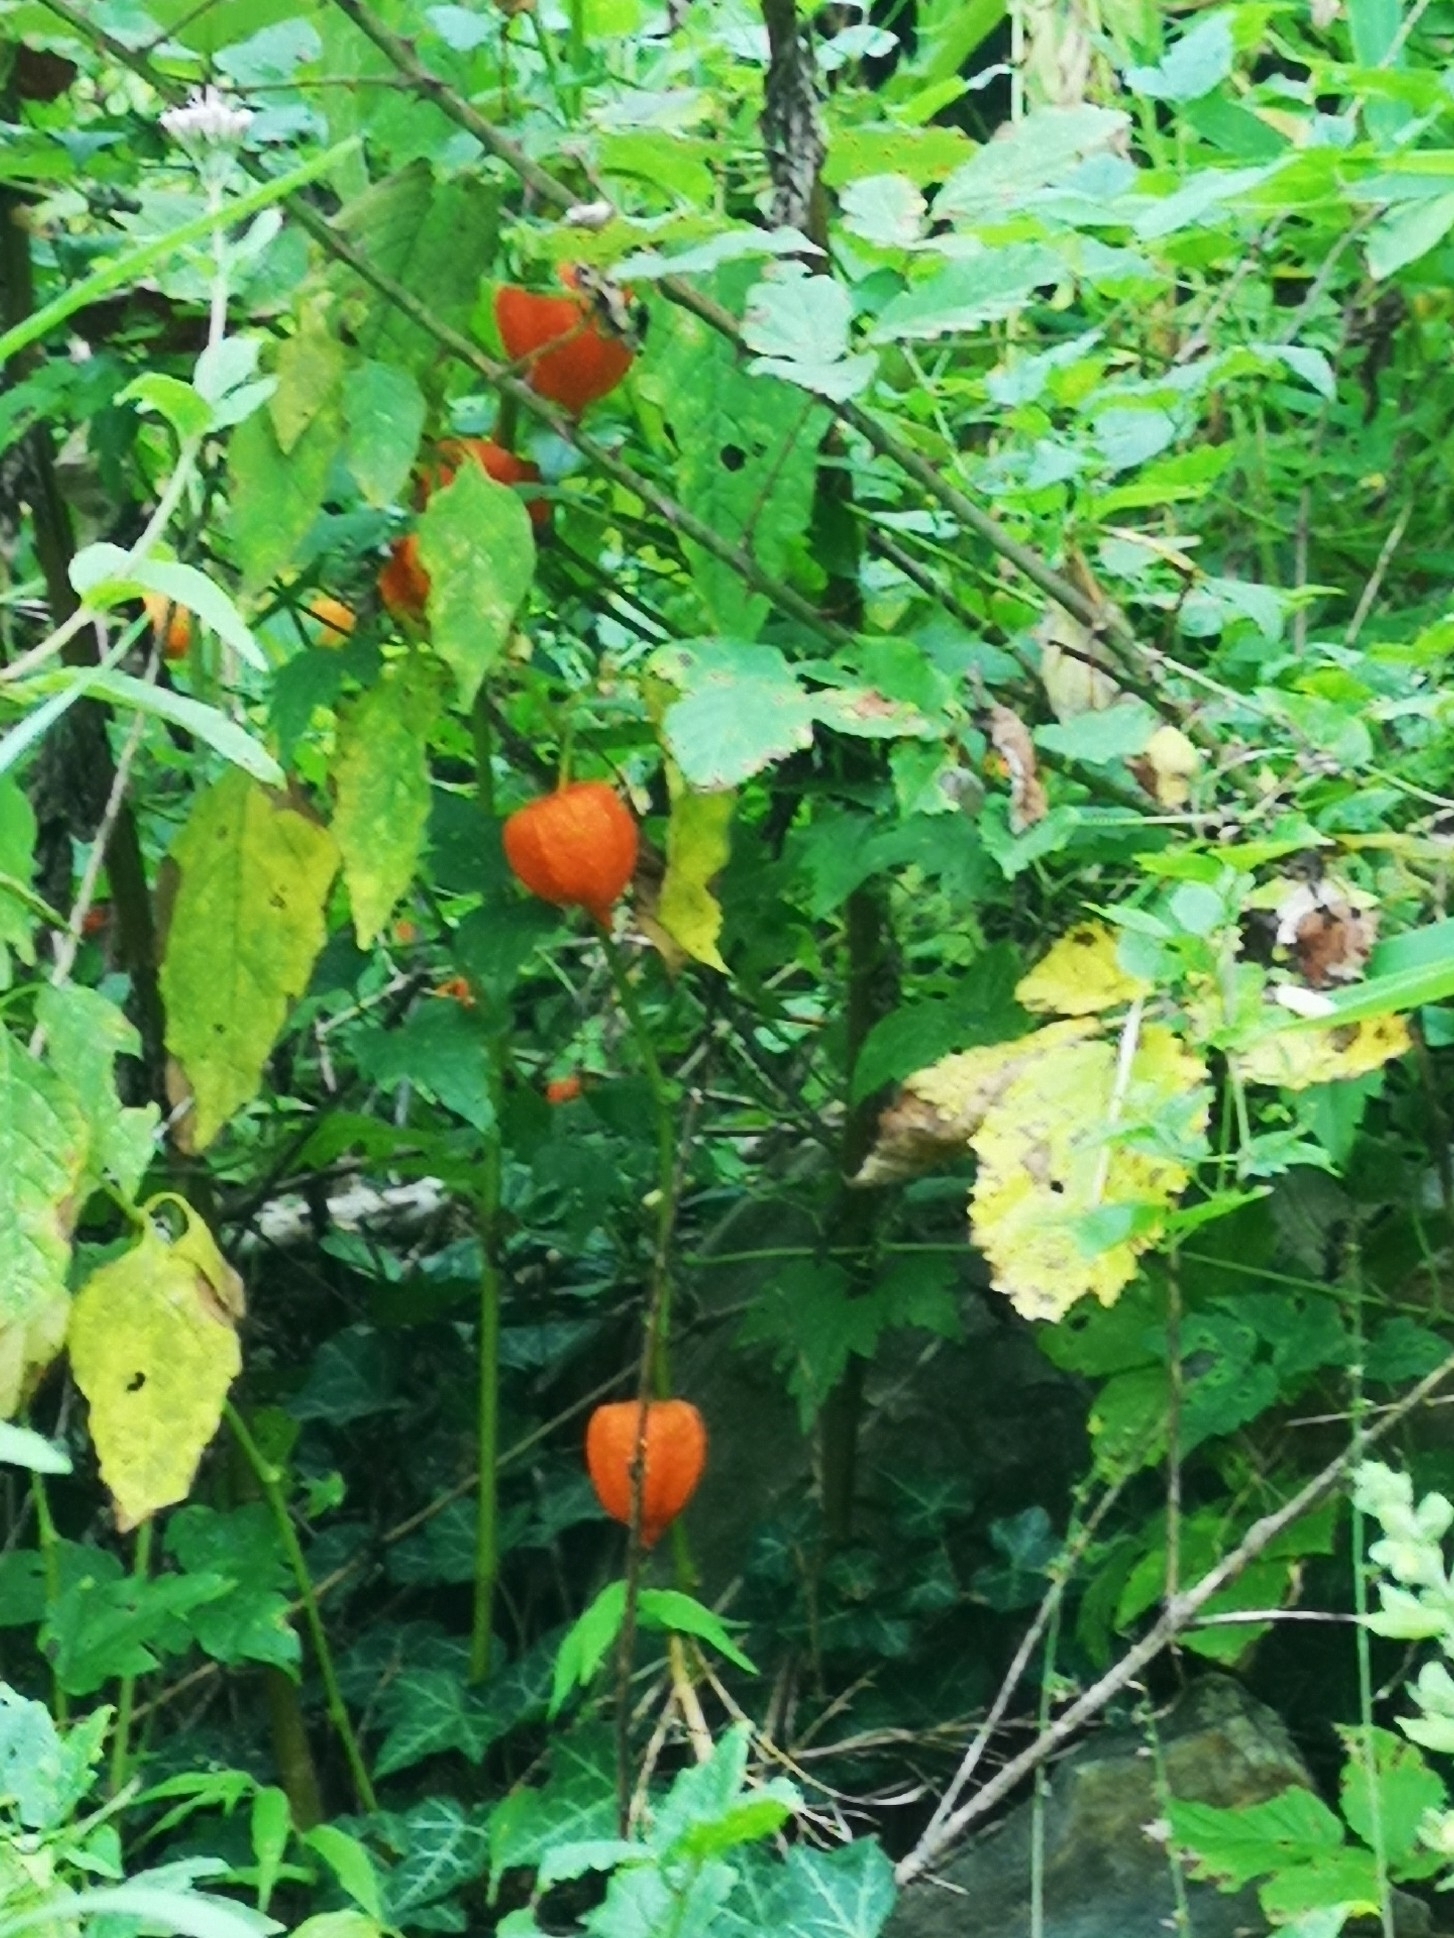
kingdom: Plantae
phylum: Tracheophyta
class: Magnoliopsida
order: Solanales
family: Solanaceae
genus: Alkekengi
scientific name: Alkekengi officinarum
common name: Japanese-lantern
